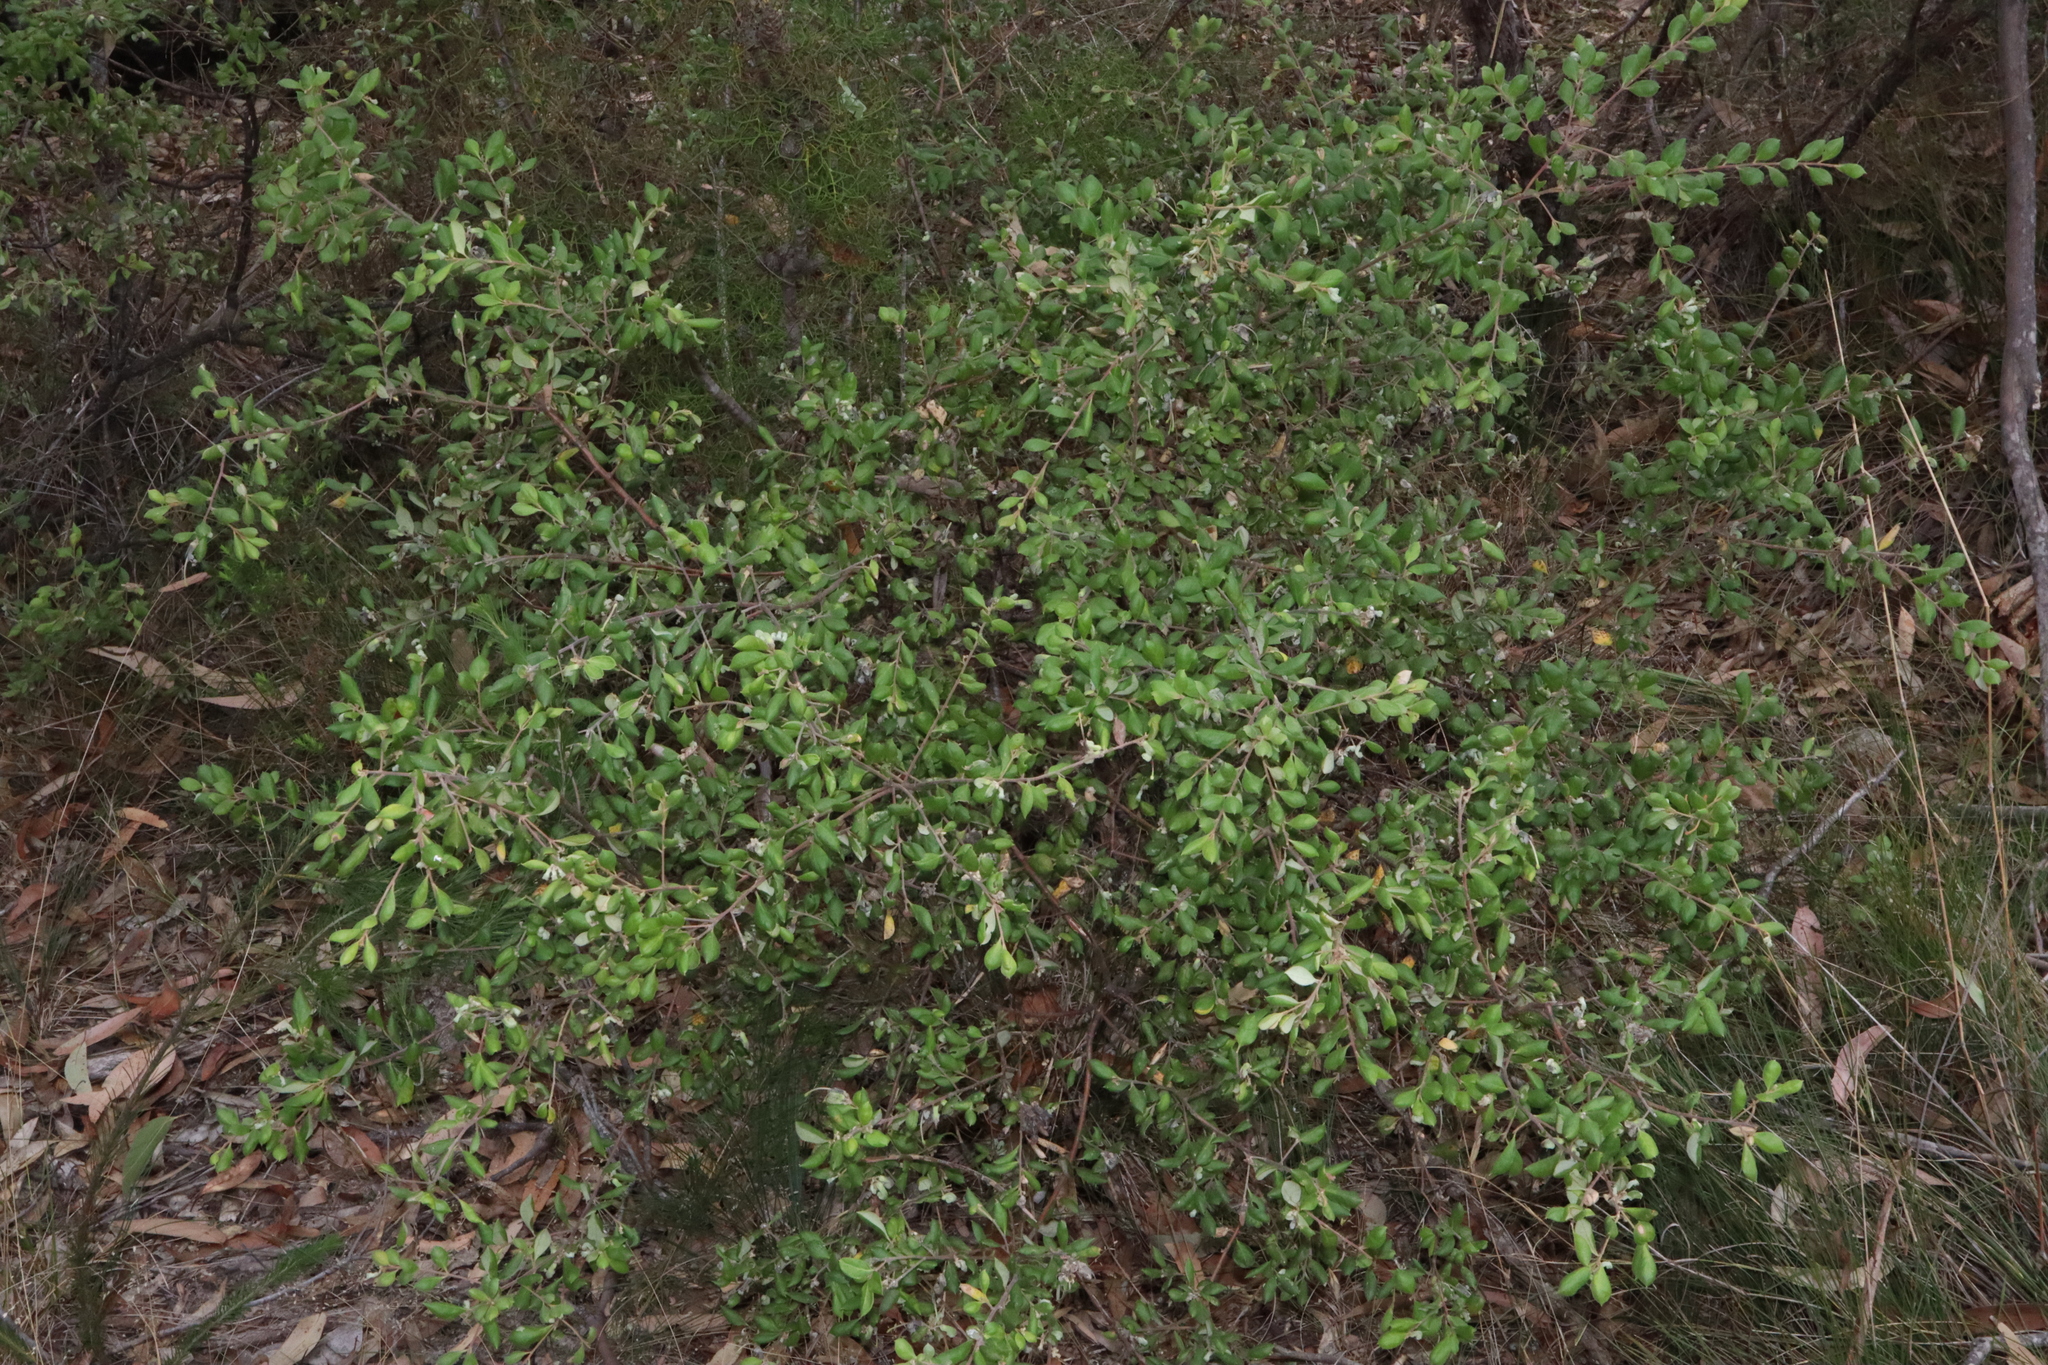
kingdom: Plantae
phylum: Tracheophyta
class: Magnoliopsida
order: Proteales
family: Proteaceae
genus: Grevillea
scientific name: Grevillea mucronulata
